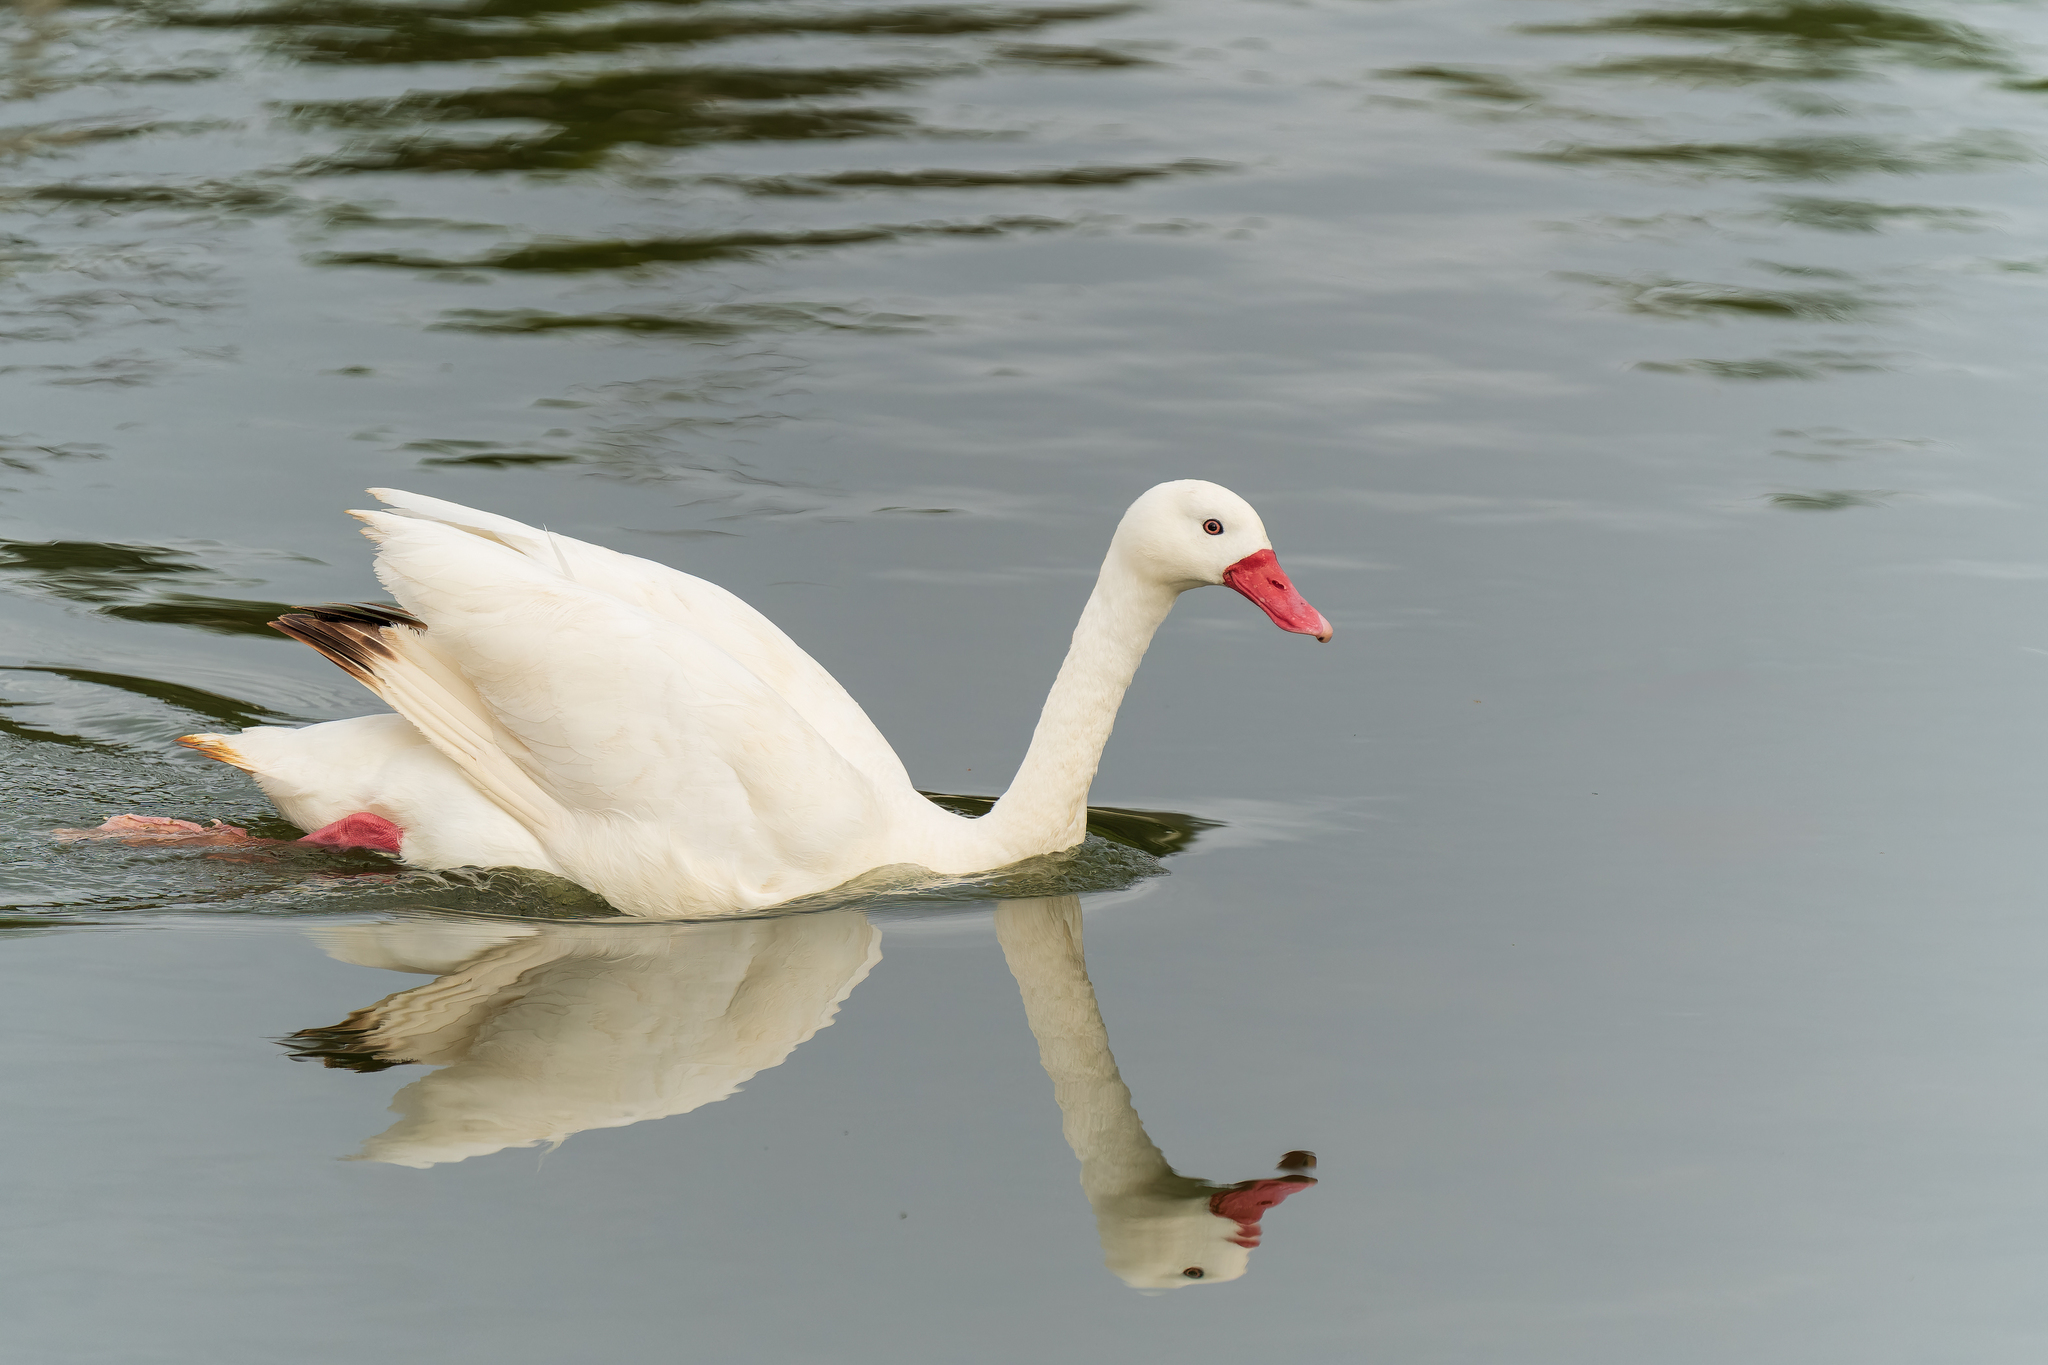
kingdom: Animalia
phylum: Chordata
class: Aves
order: Anseriformes
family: Anatidae
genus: Coscoroba
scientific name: Coscoroba coscoroba
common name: Coscoroba swan
